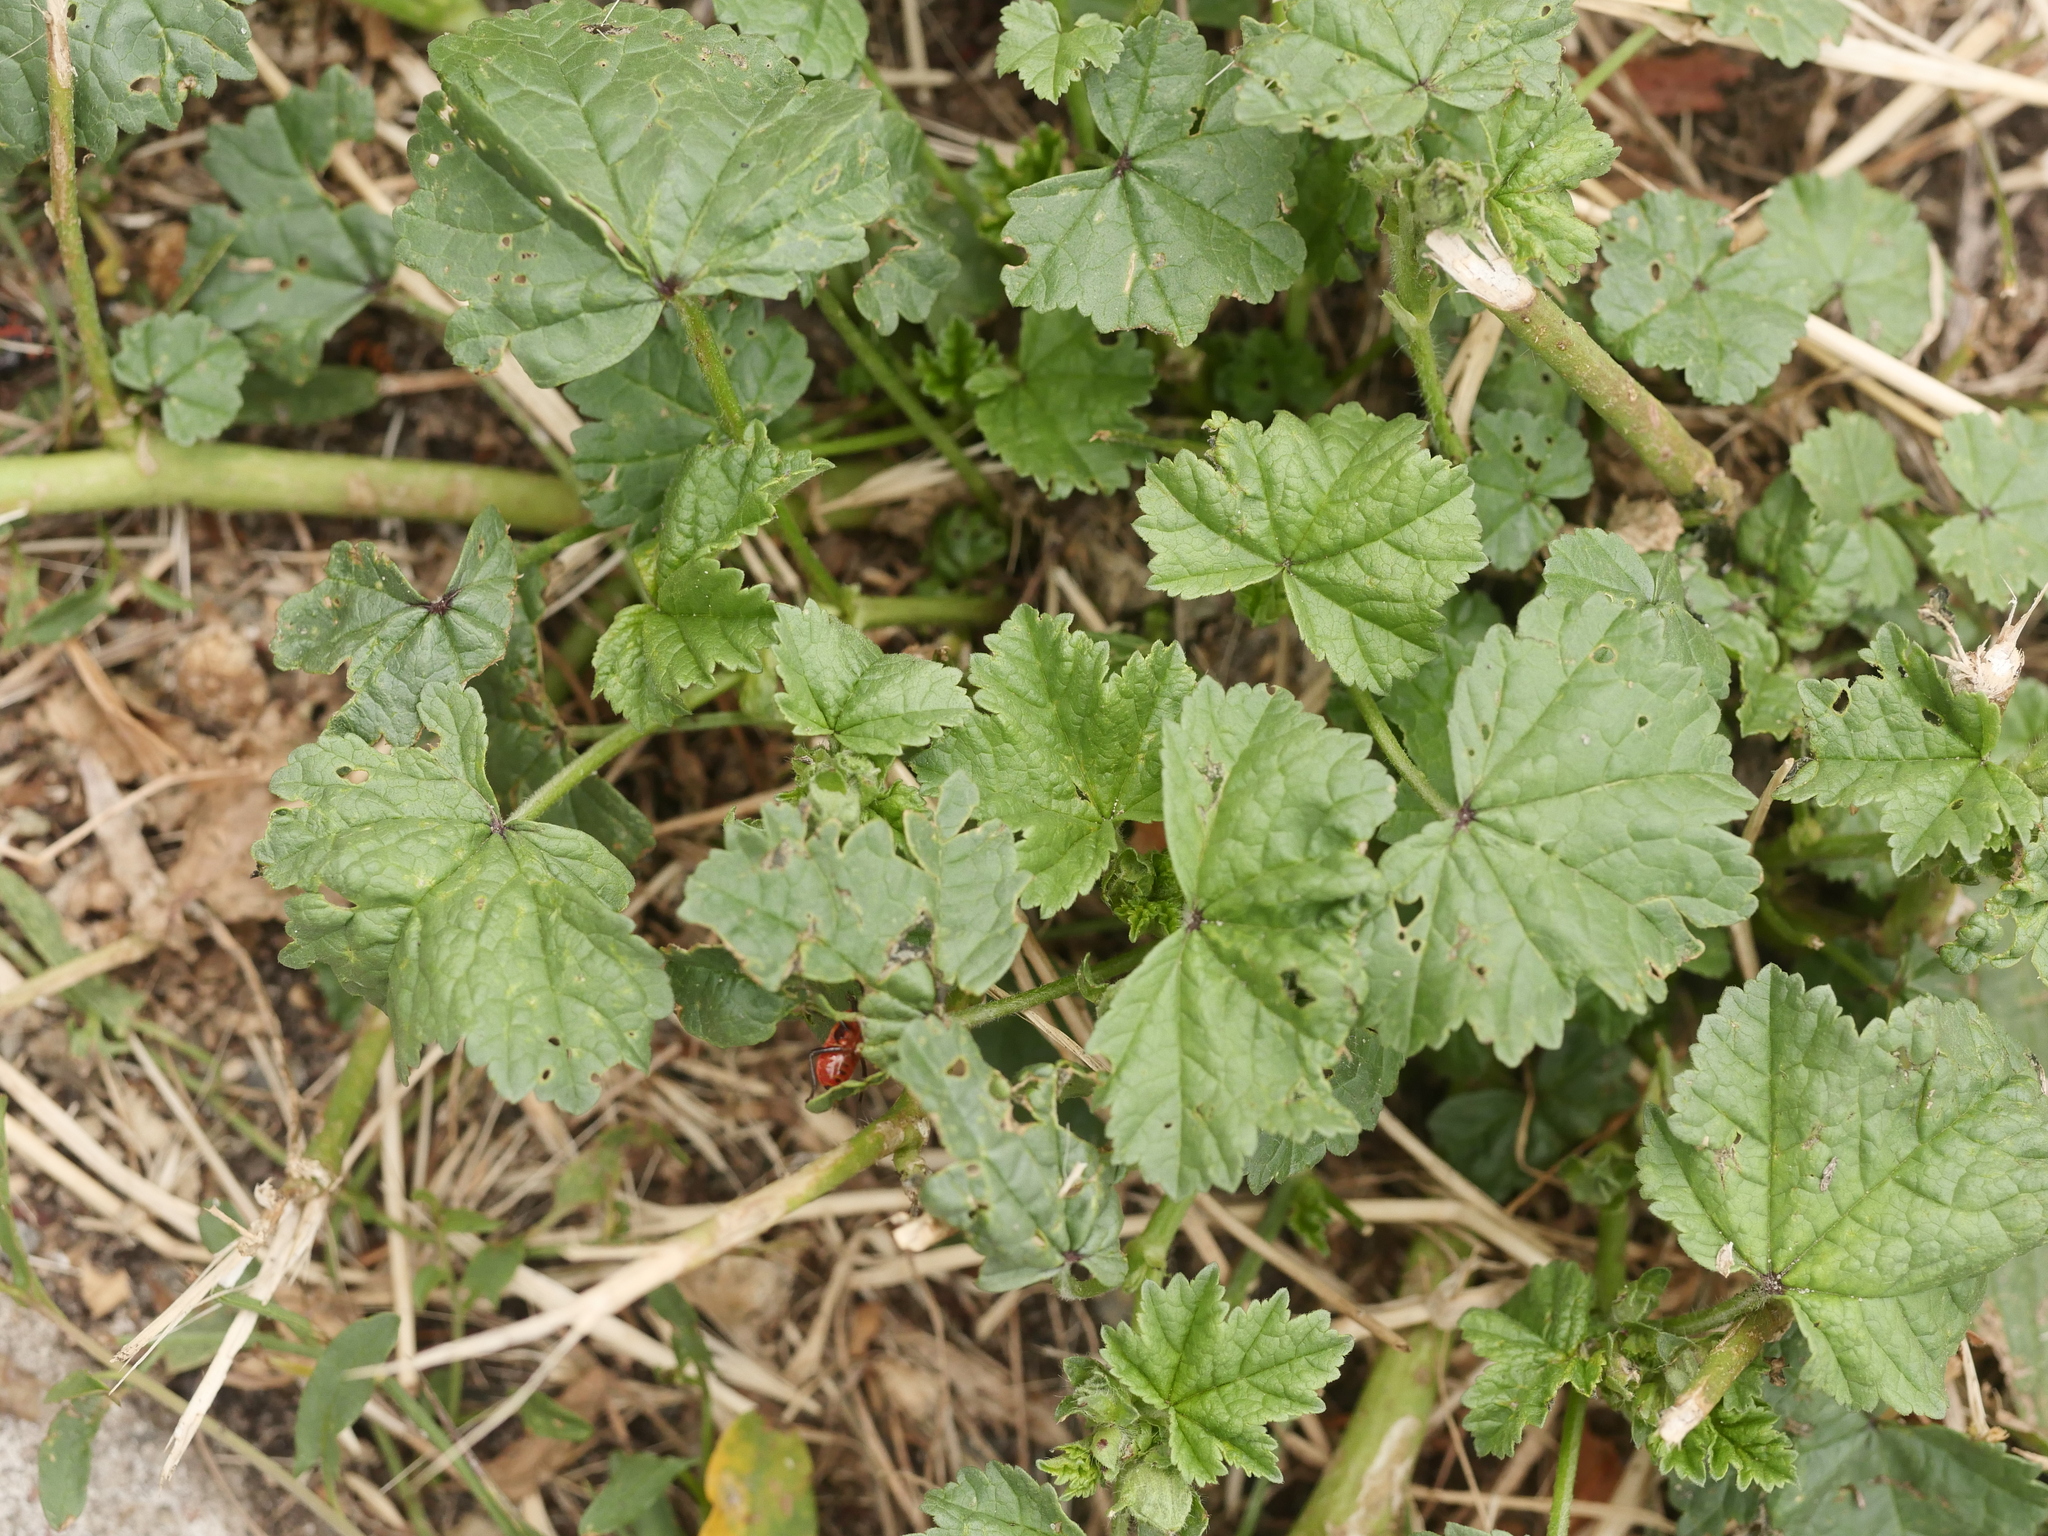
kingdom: Plantae
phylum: Tracheophyta
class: Magnoliopsida
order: Malvales
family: Malvaceae
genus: Malva
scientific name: Malva neglecta
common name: Common mallow
